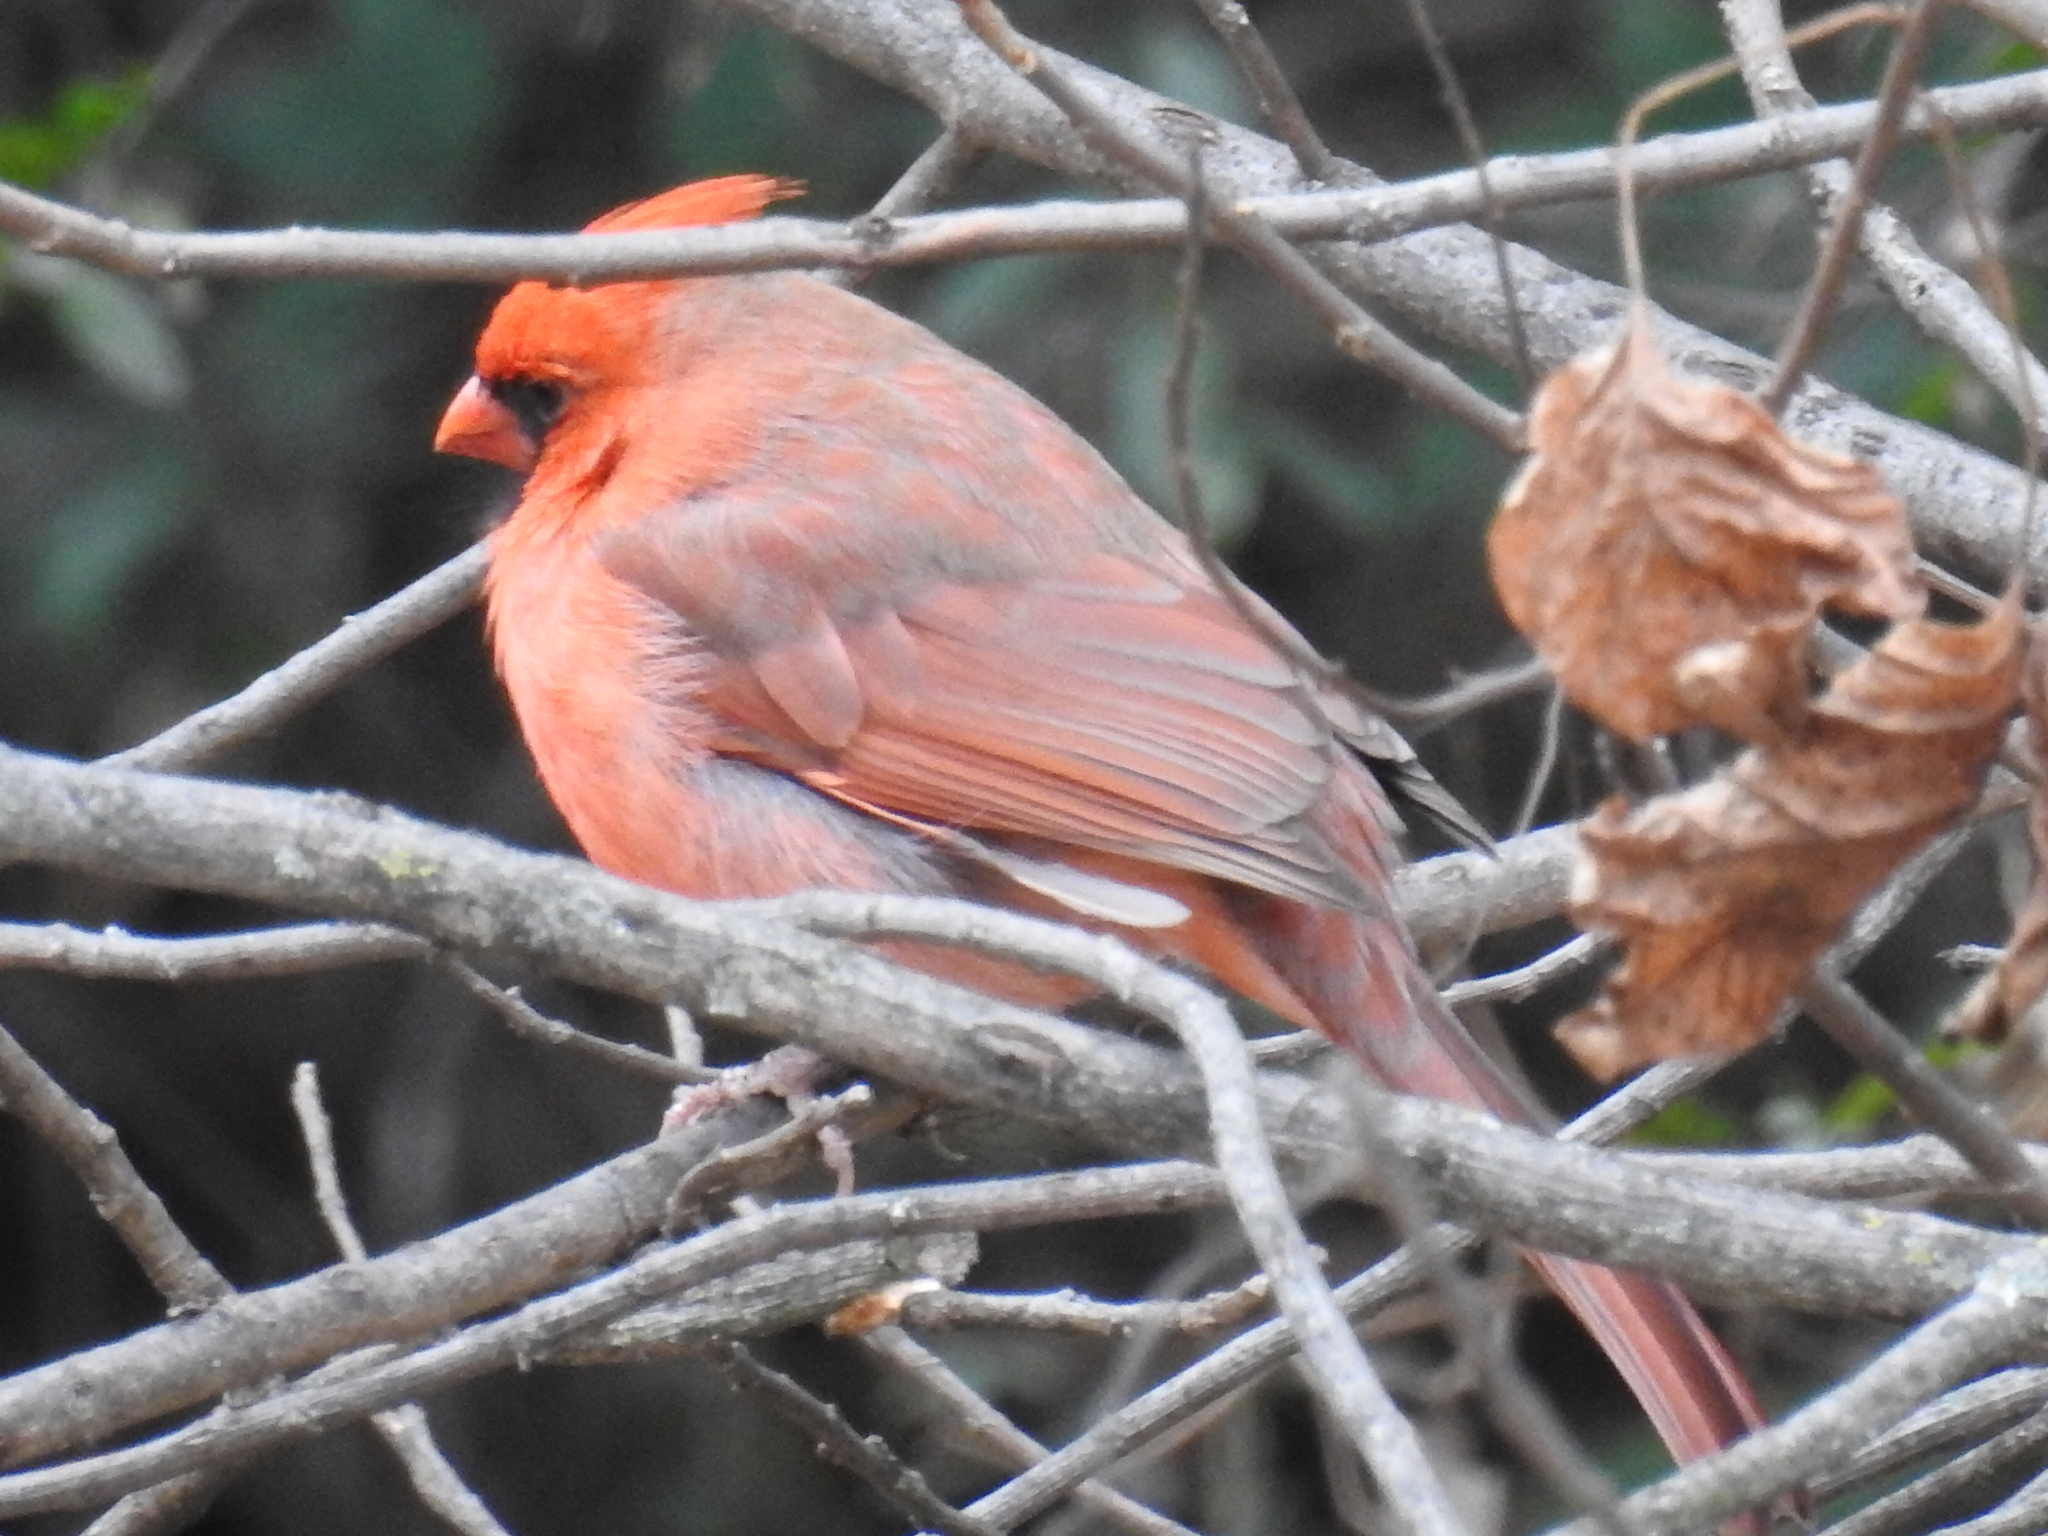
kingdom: Animalia
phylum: Chordata
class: Aves
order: Passeriformes
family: Cardinalidae
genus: Cardinalis
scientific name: Cardinalis cardinalis
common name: Northern cardinal
